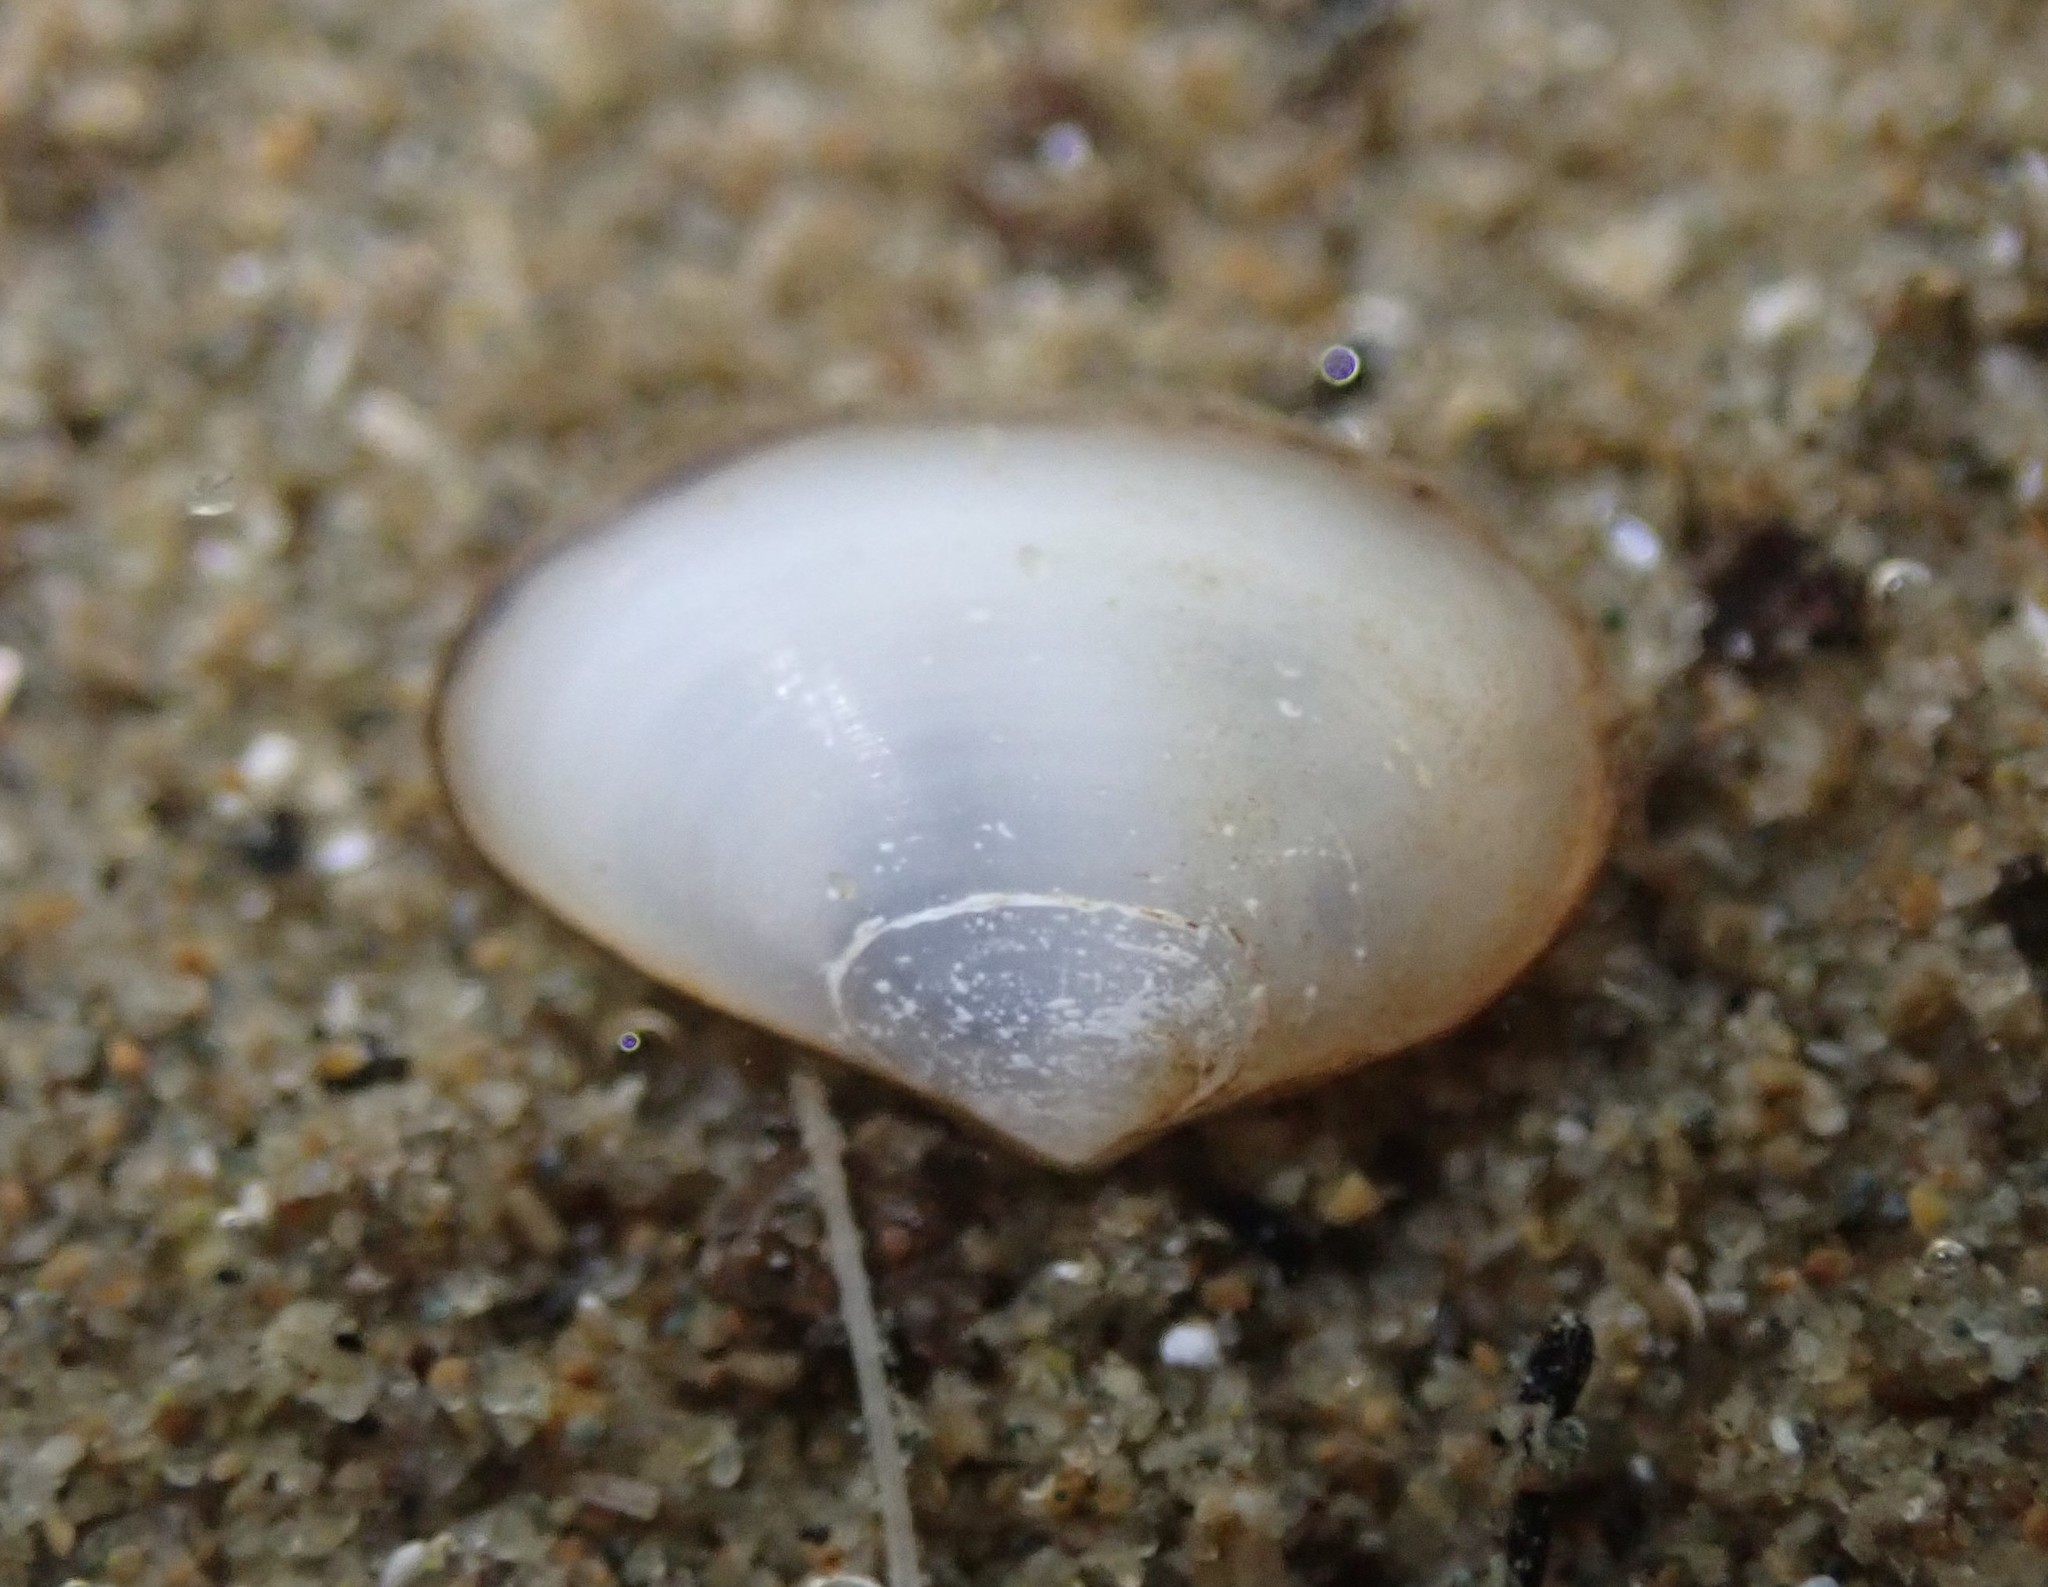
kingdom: Animalia
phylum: Mollusca
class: Bivalvia
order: Venerida
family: Mesodesmatidae
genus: Paphies
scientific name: Paphies australis
